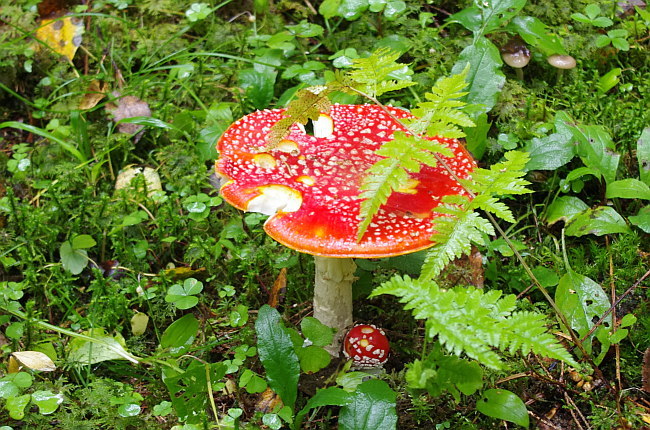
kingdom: Fungi
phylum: Basidiomycota
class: Agaricomycetes
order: Agaricales
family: Amanitaceae
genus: Amanita
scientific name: Amanita muscaria
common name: Fly agaric
